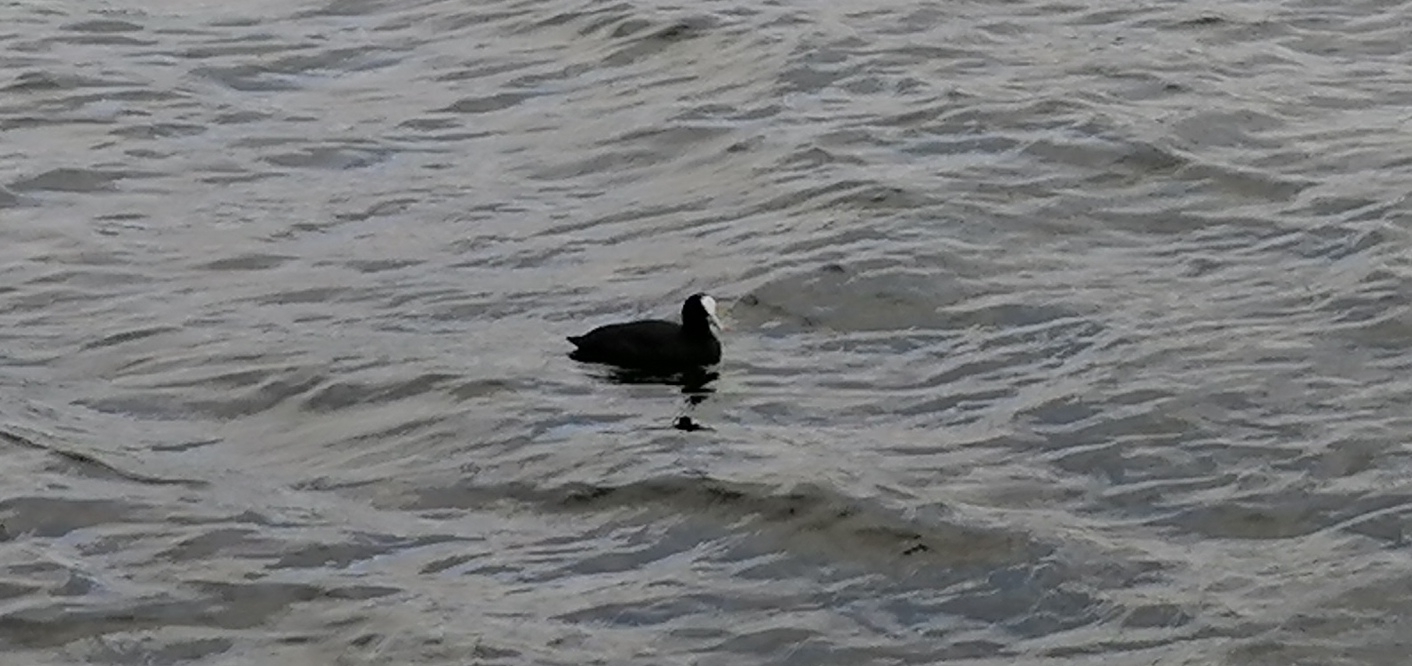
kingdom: Animalia
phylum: Chordata
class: Aves
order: Gruiformes
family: Rallidae
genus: Fulica
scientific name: Fulica atra
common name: Eurasian coot
